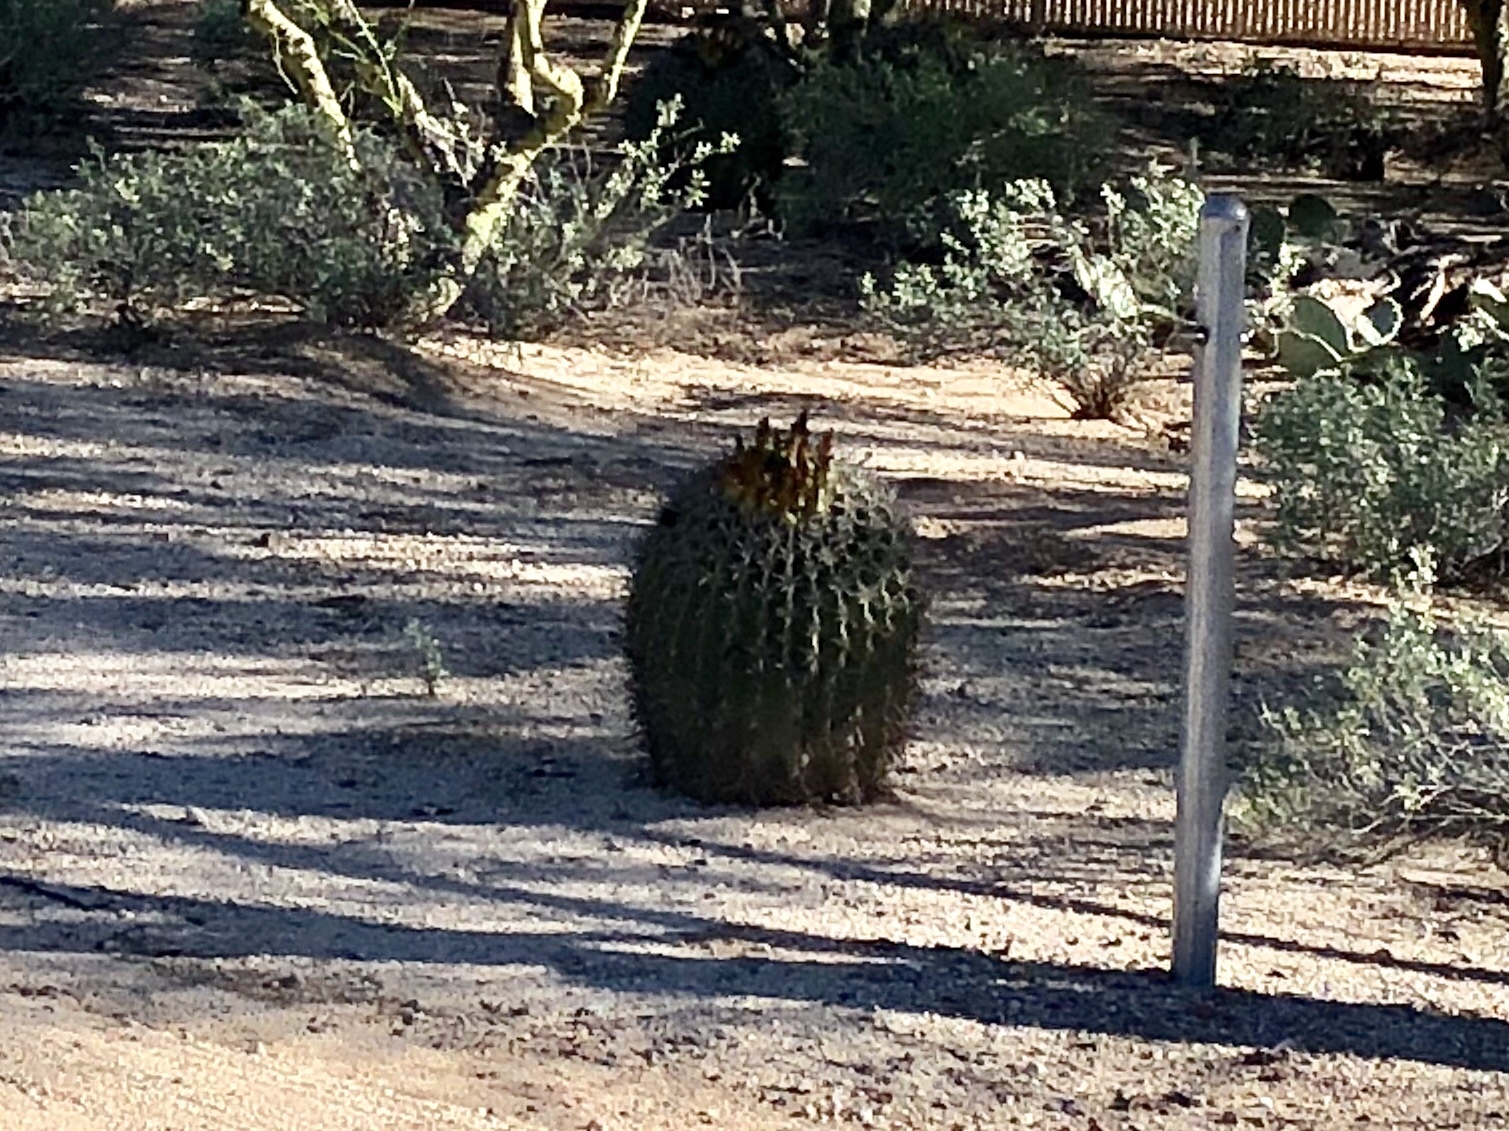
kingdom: Plantae
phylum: Tracheophyta
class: Magnoliopsida
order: Caryophyllales
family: Cactaceae
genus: Ferocactus
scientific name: Ferocactus wislizeni
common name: Candy barrel cactus
